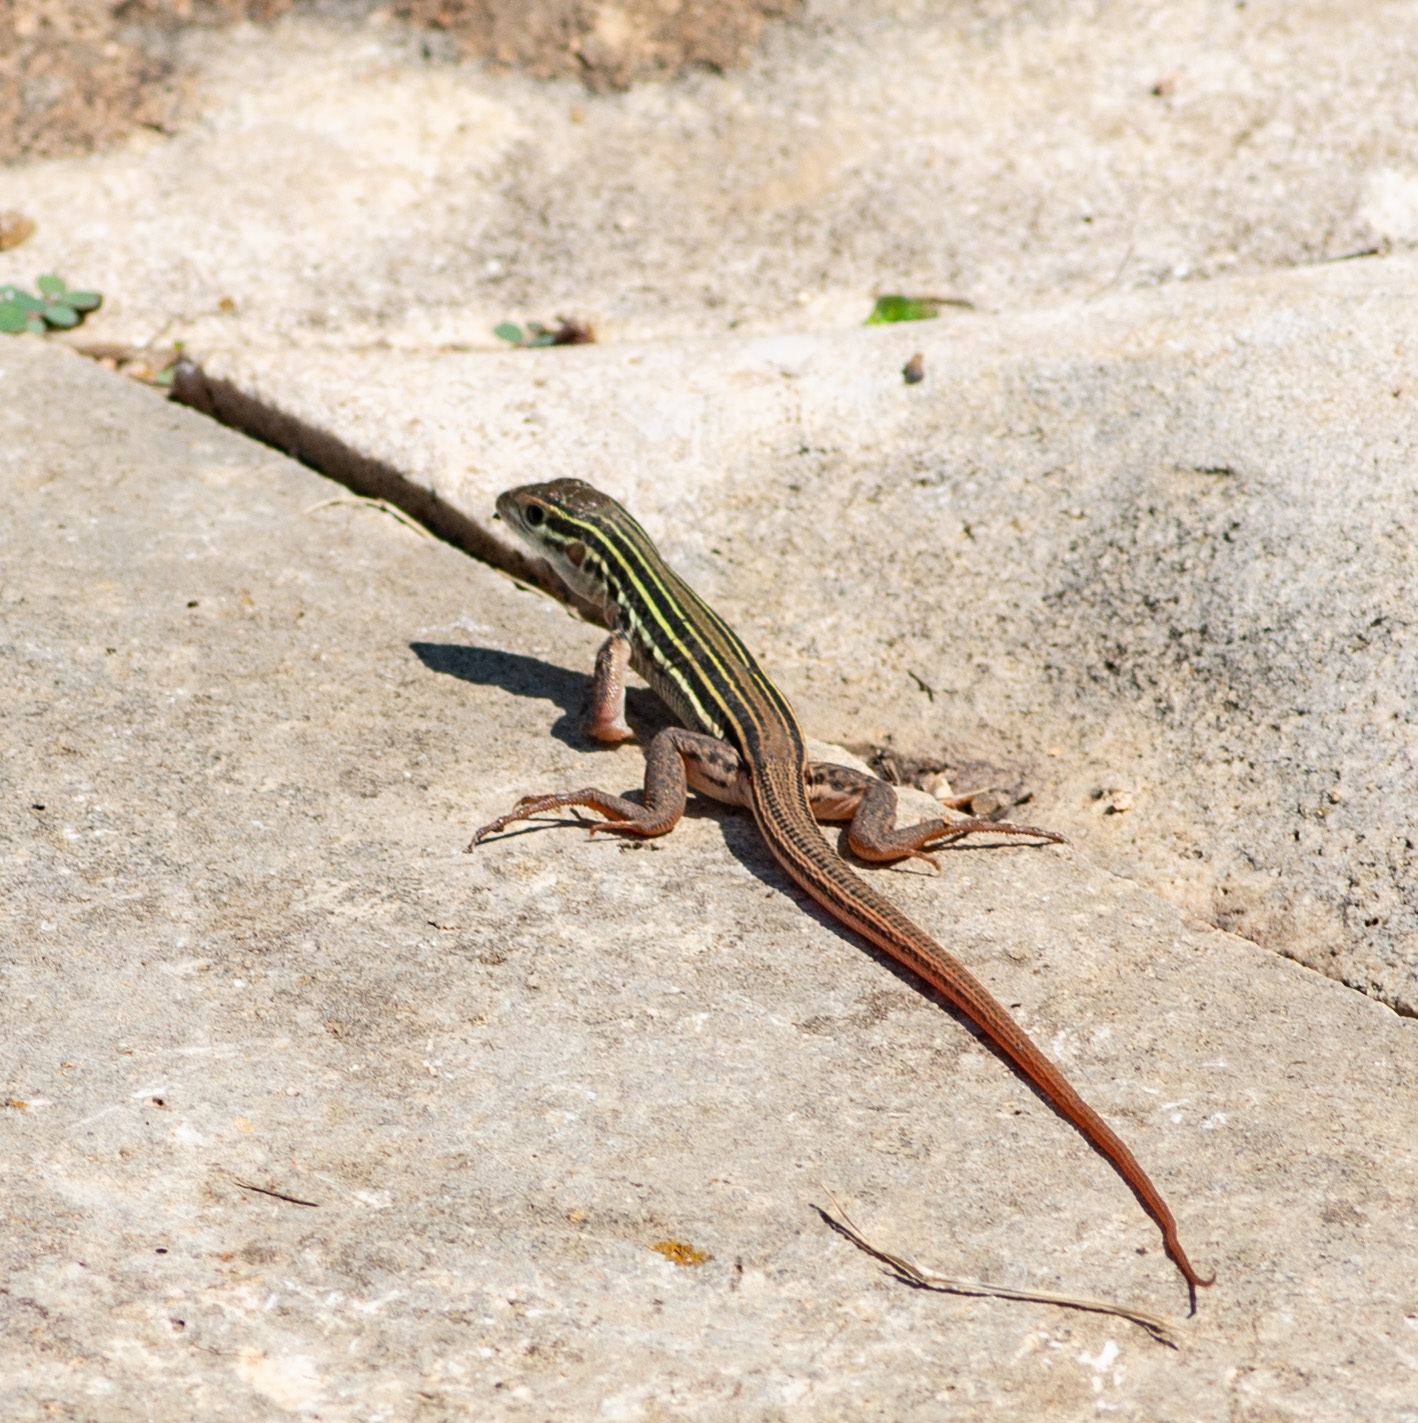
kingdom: Animalia
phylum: Chordata
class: Squamata
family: Teiidae
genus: Aspidoscelis
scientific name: Aspidoscelis gularis
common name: Eastern spotted whiptail
